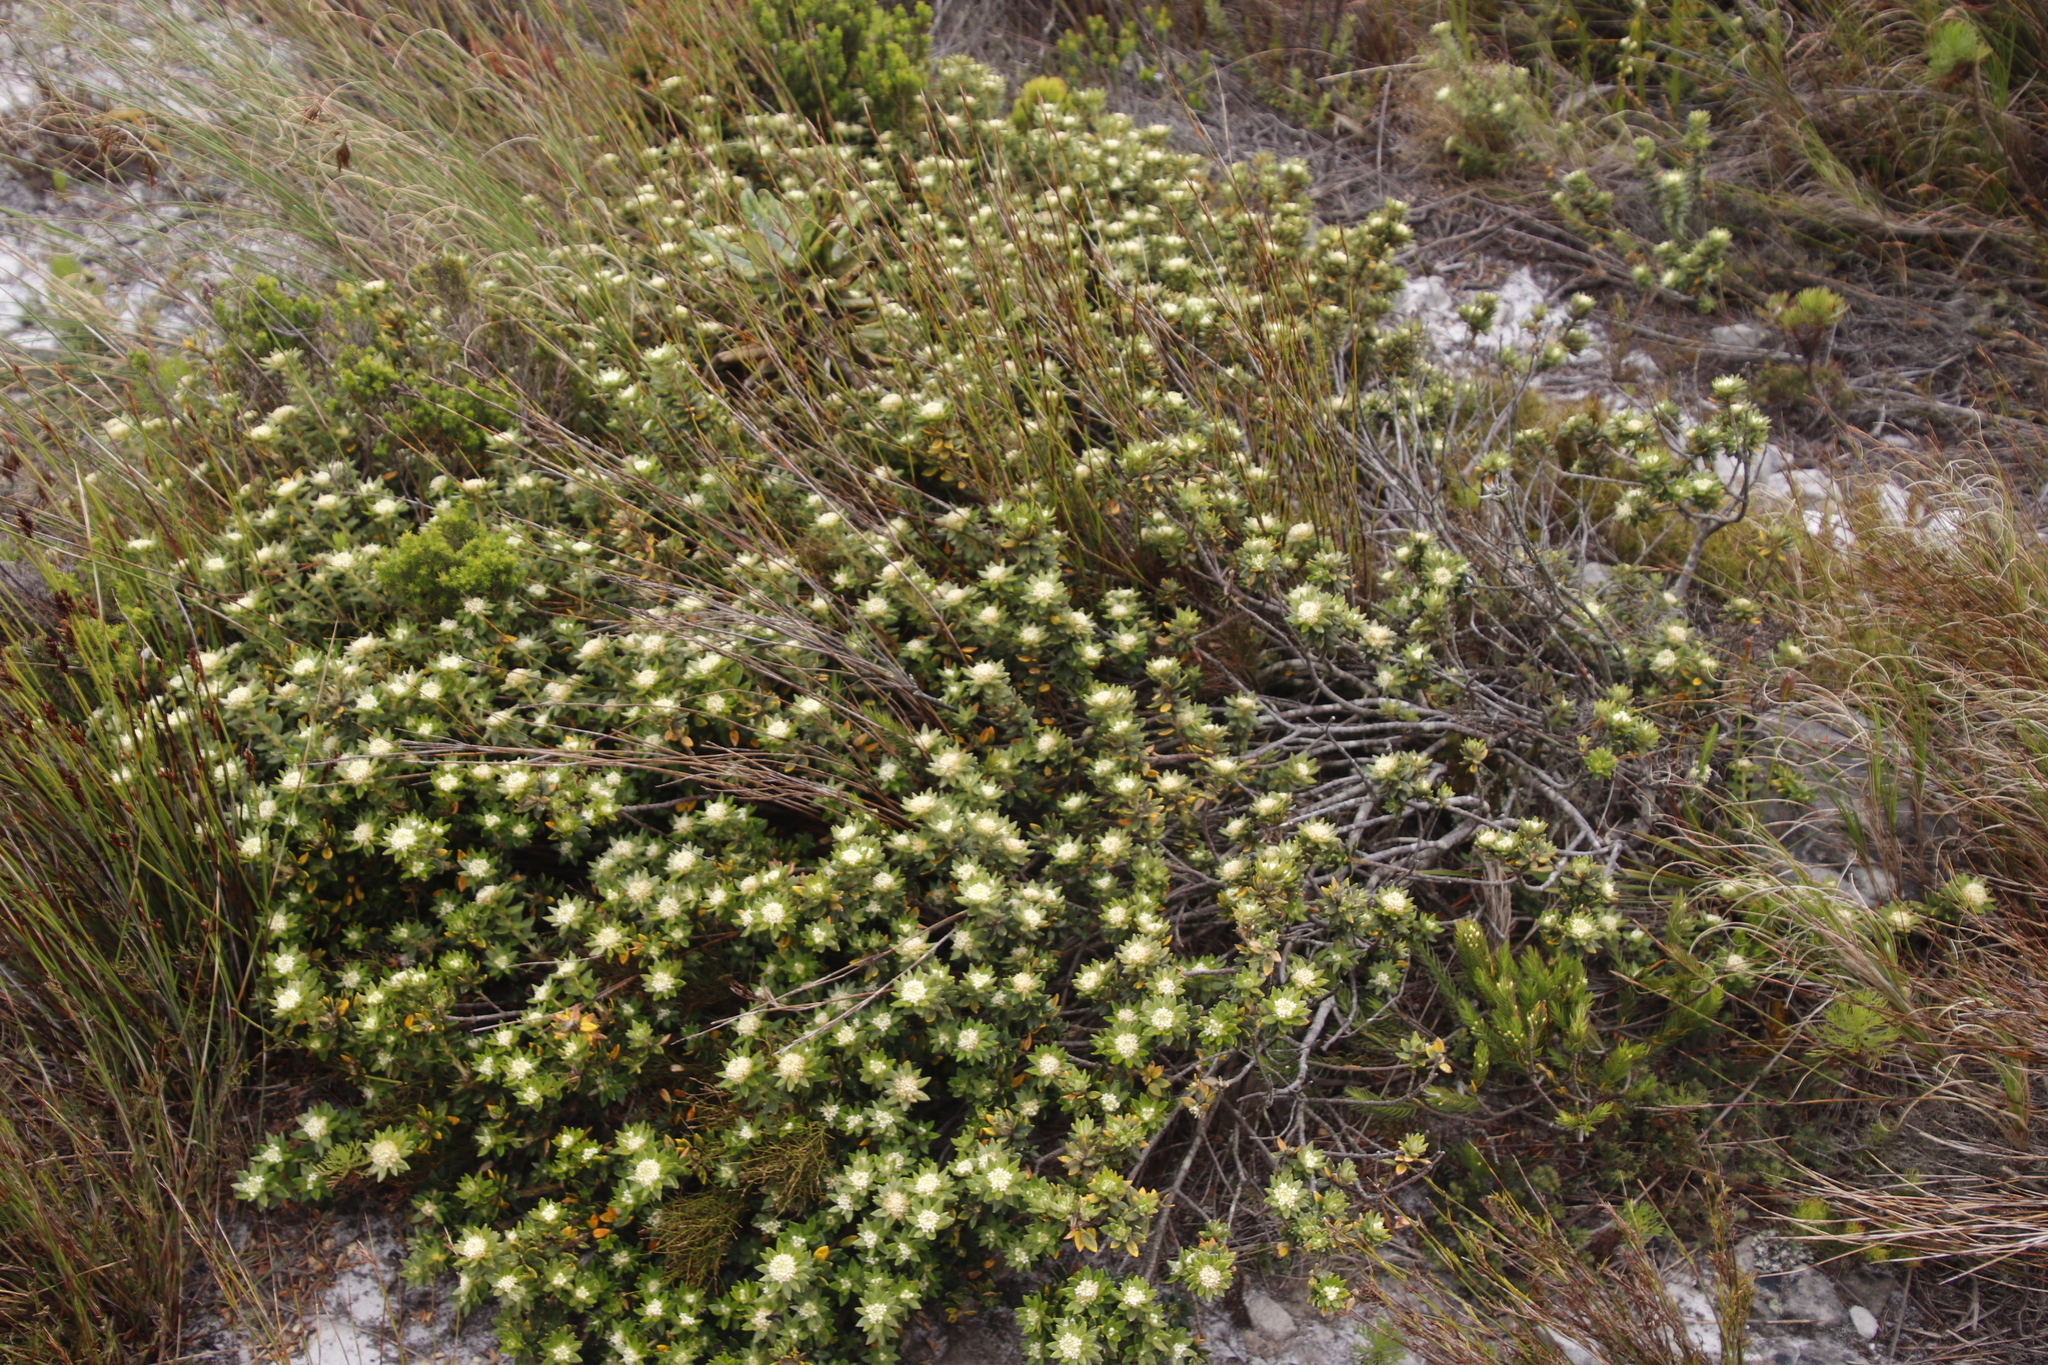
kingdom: Plantae
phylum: Tracheophyta
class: Magnoliopsida
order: Rosales
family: Rhamnaceae
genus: Phylica
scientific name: Phylica dioica
